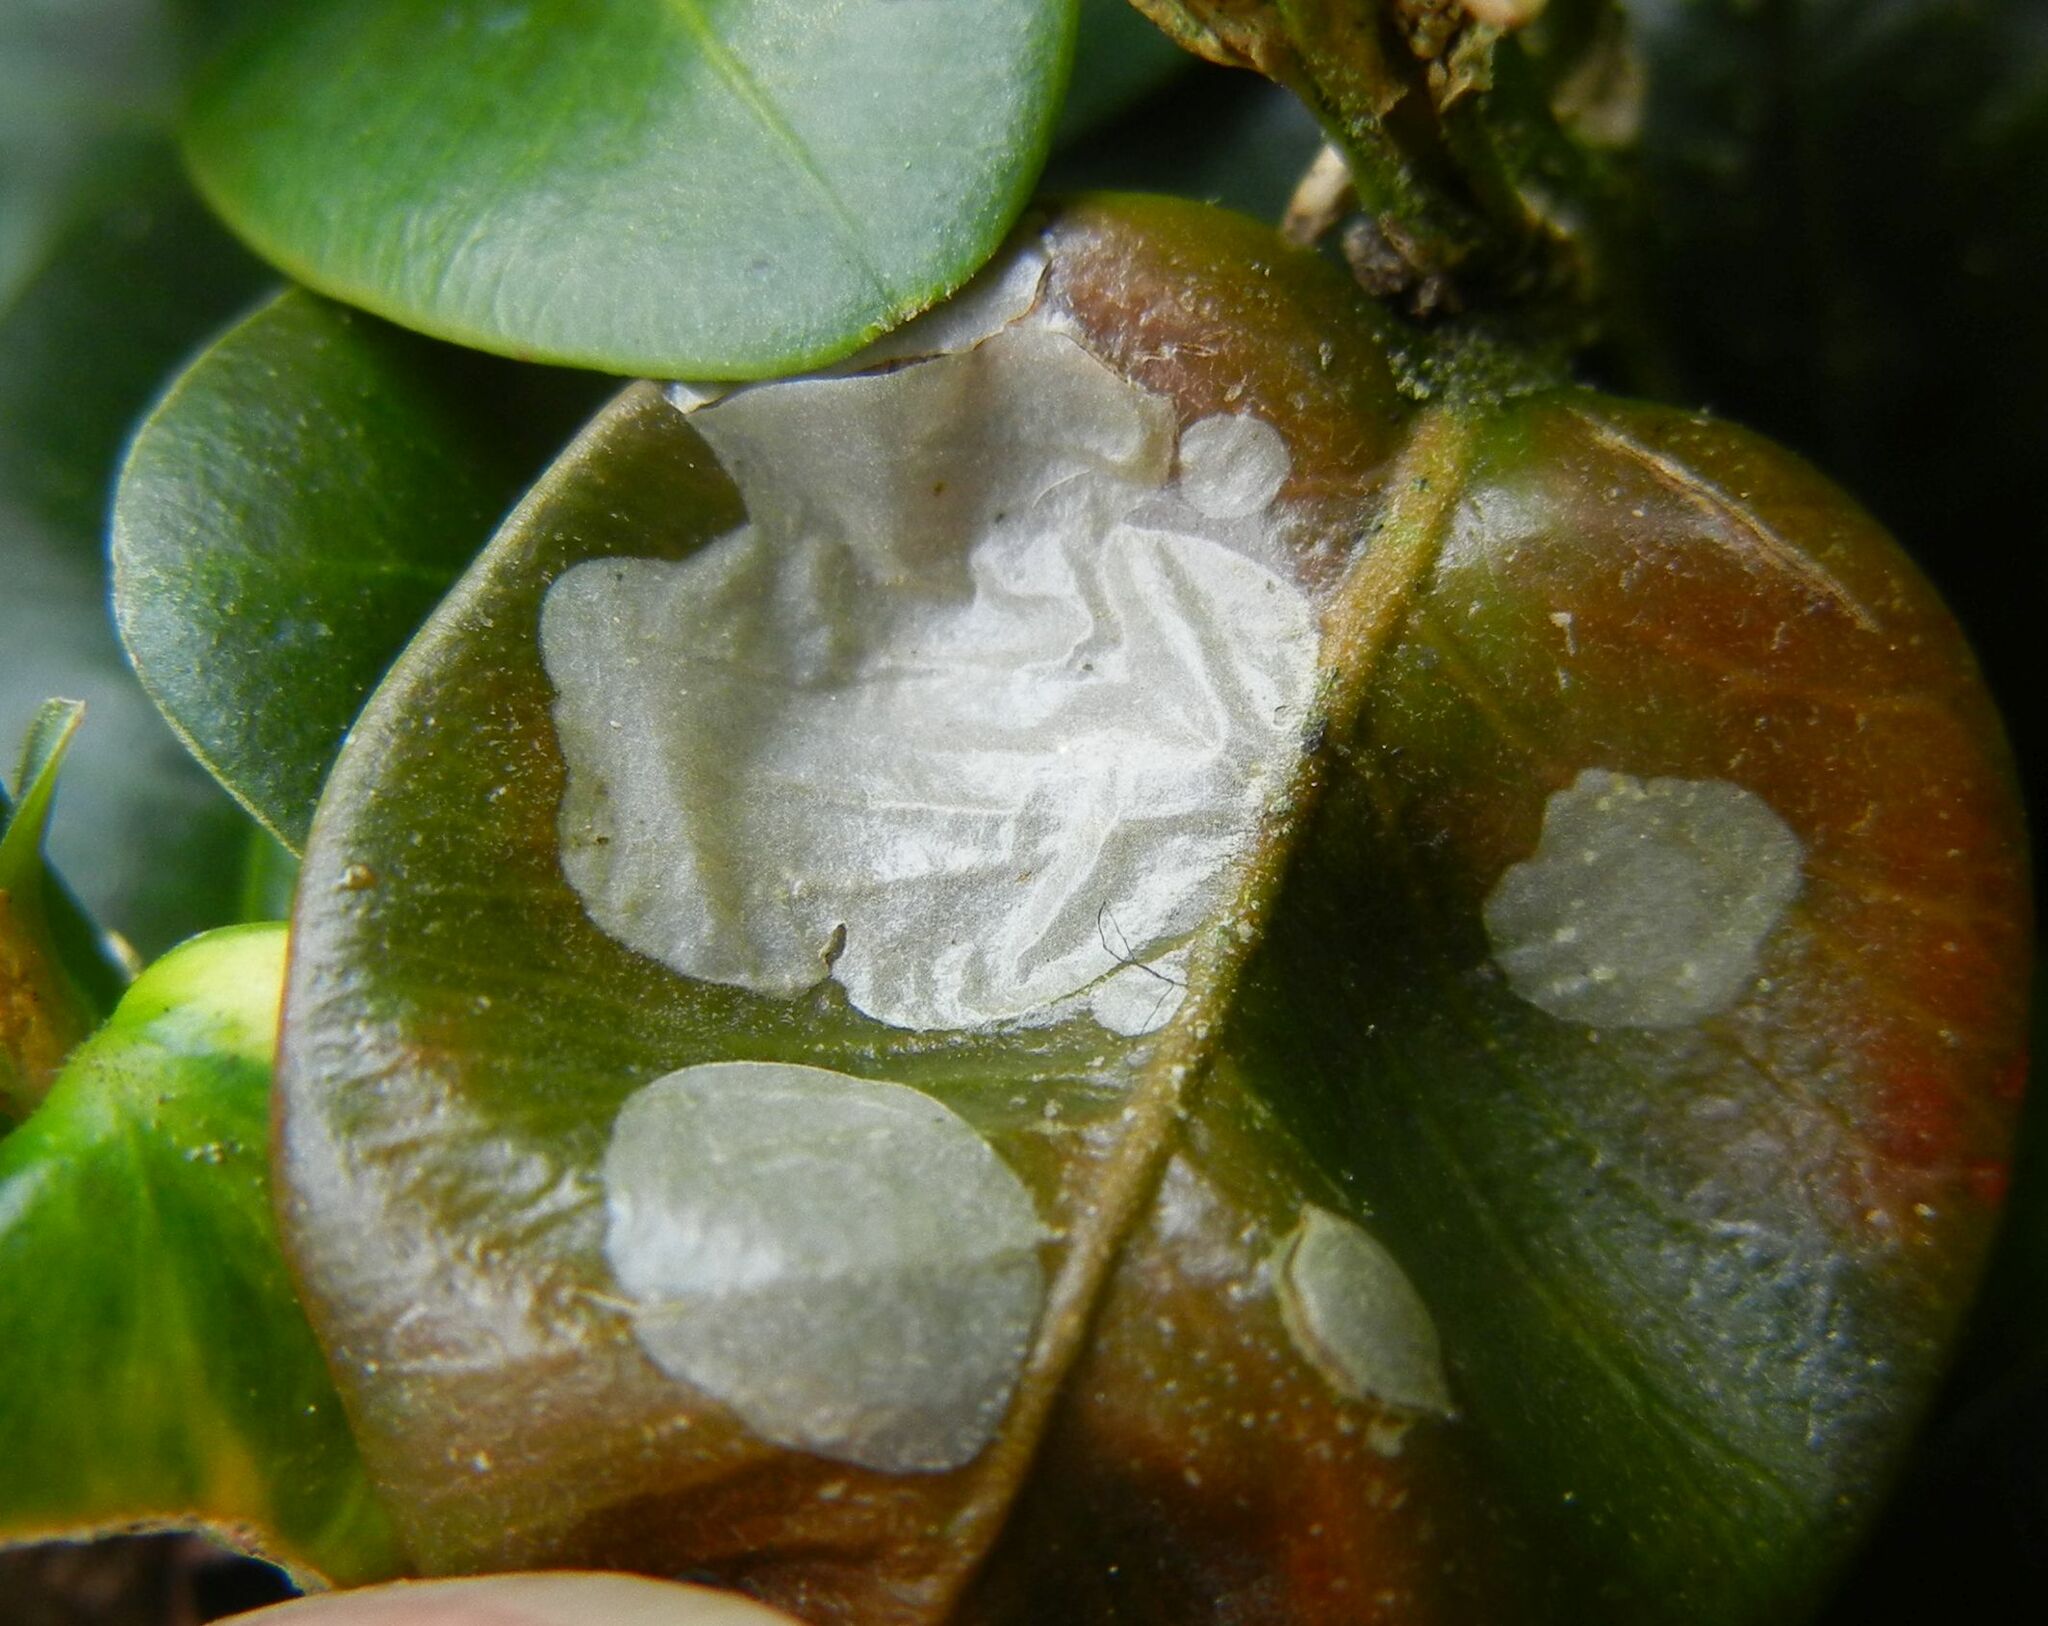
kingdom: Animalia
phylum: Arthropoda
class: Insecta
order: Diptera
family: Cecidomyiidae
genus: Monarthropalpus
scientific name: Monarthropalpus flavus
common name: Boxwood leafminer
